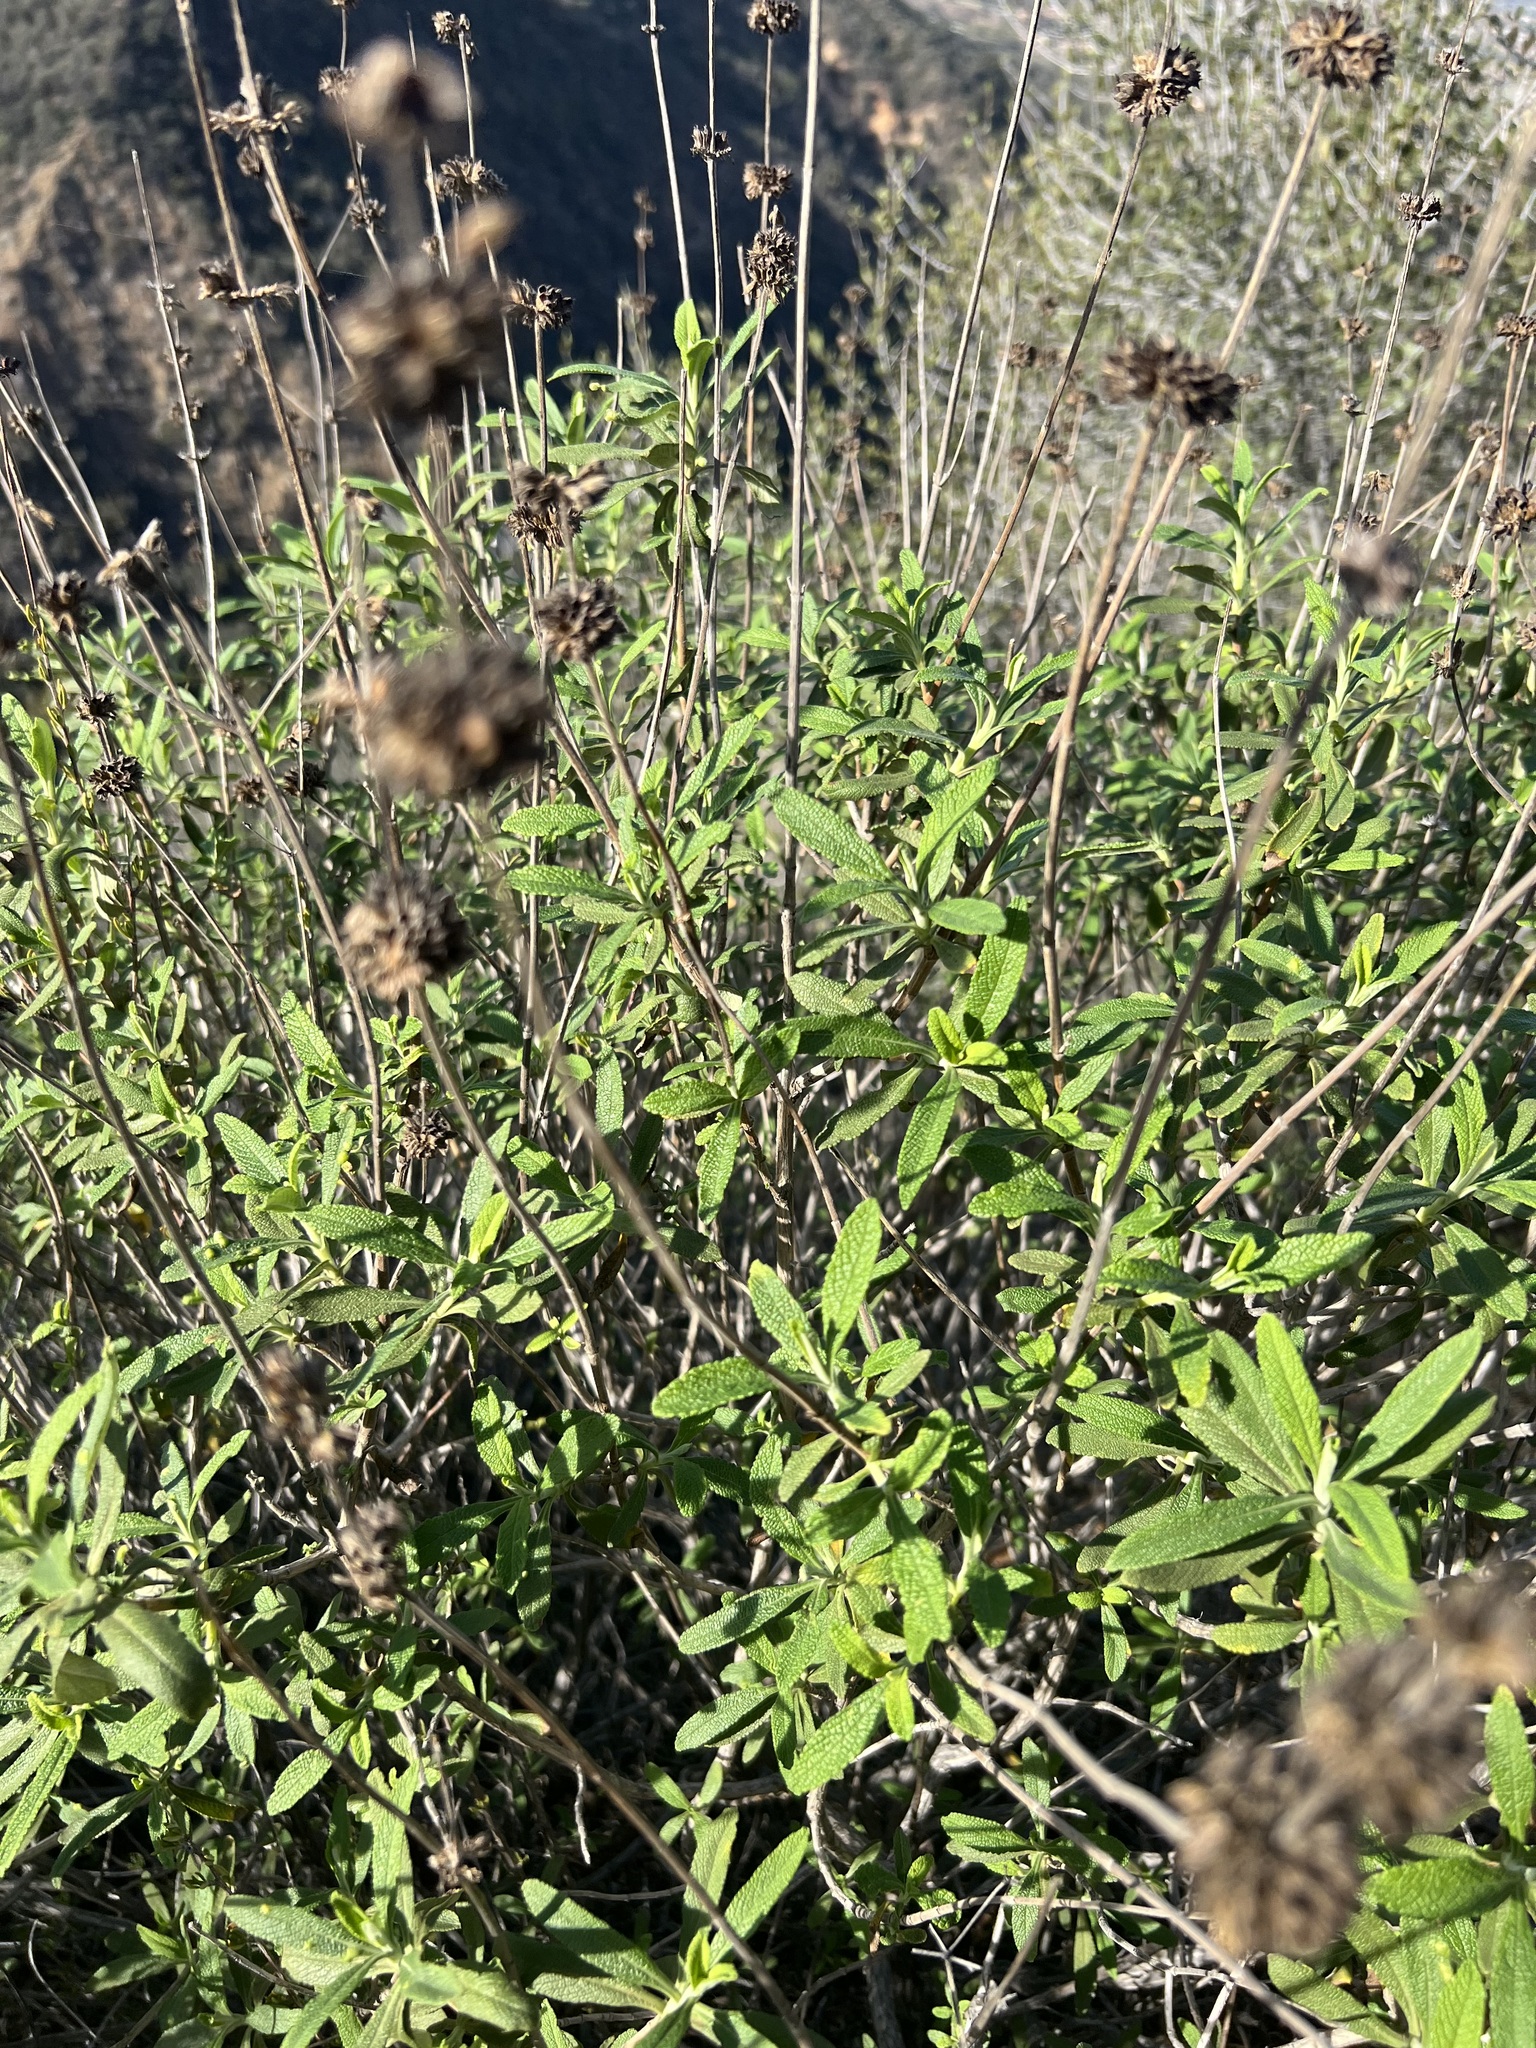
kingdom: Plantae
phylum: Tracheophyta
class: Magnoliopsida
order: Lamiales
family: Lamiaceae
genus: Salvia
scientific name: Salvia mellifera
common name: Black sage
